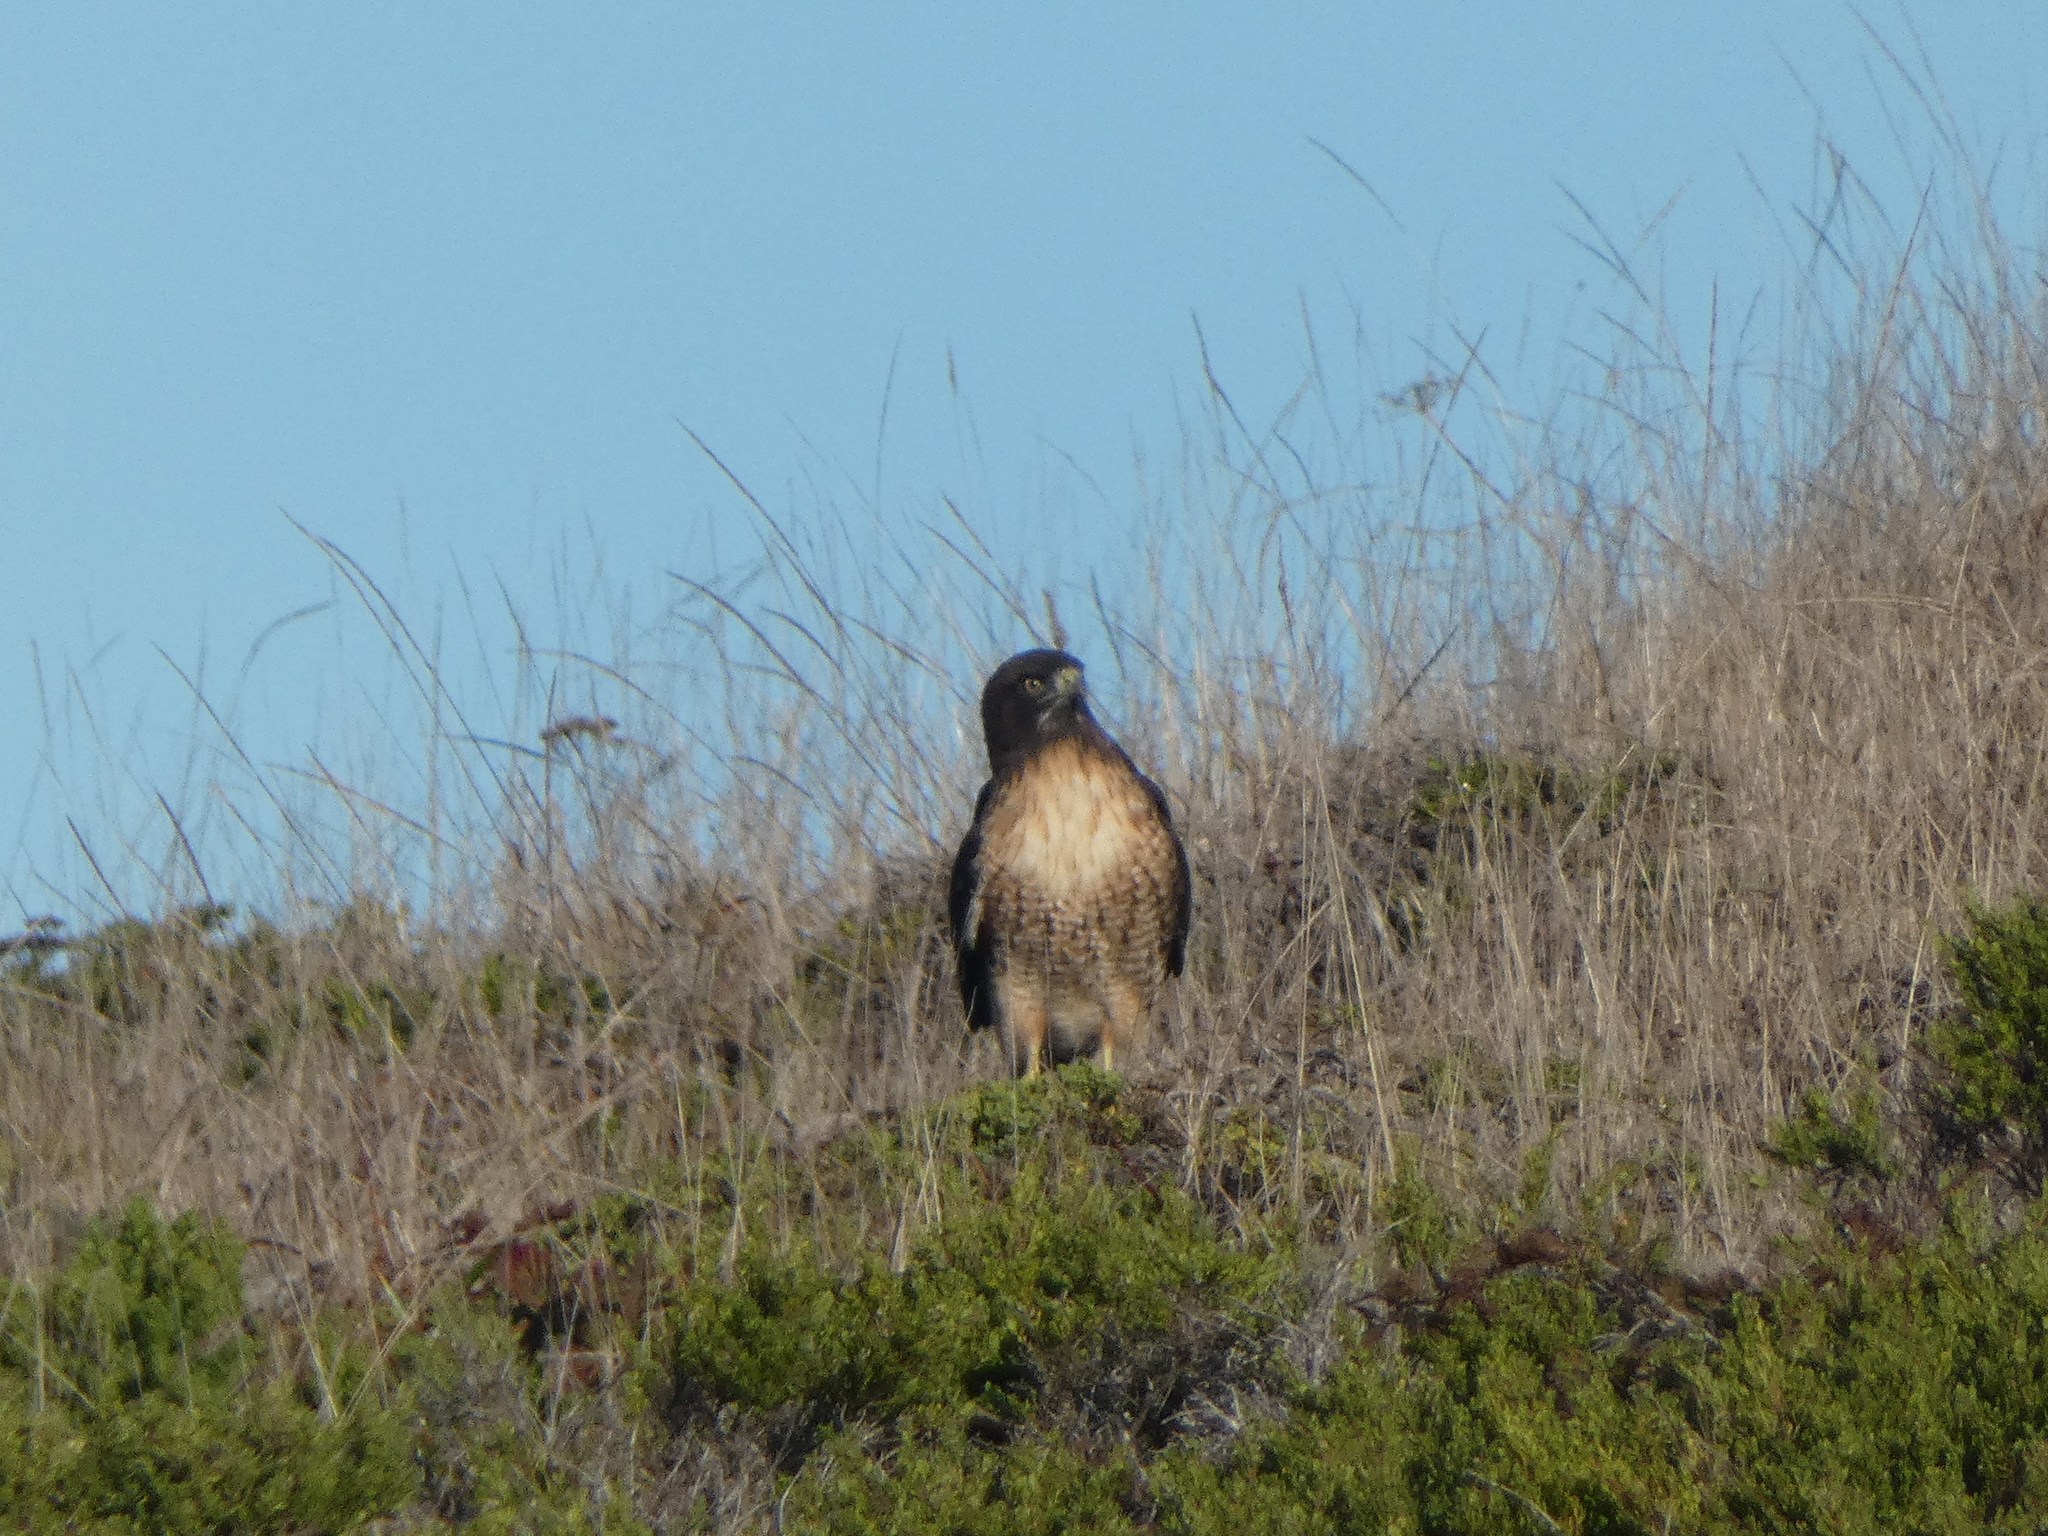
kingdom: Animalia
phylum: Chordata
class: Aves
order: Accipitriformes
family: Accipitridae
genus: Buteo
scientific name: Buteo jamaicensis
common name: Red-tailed hawk
